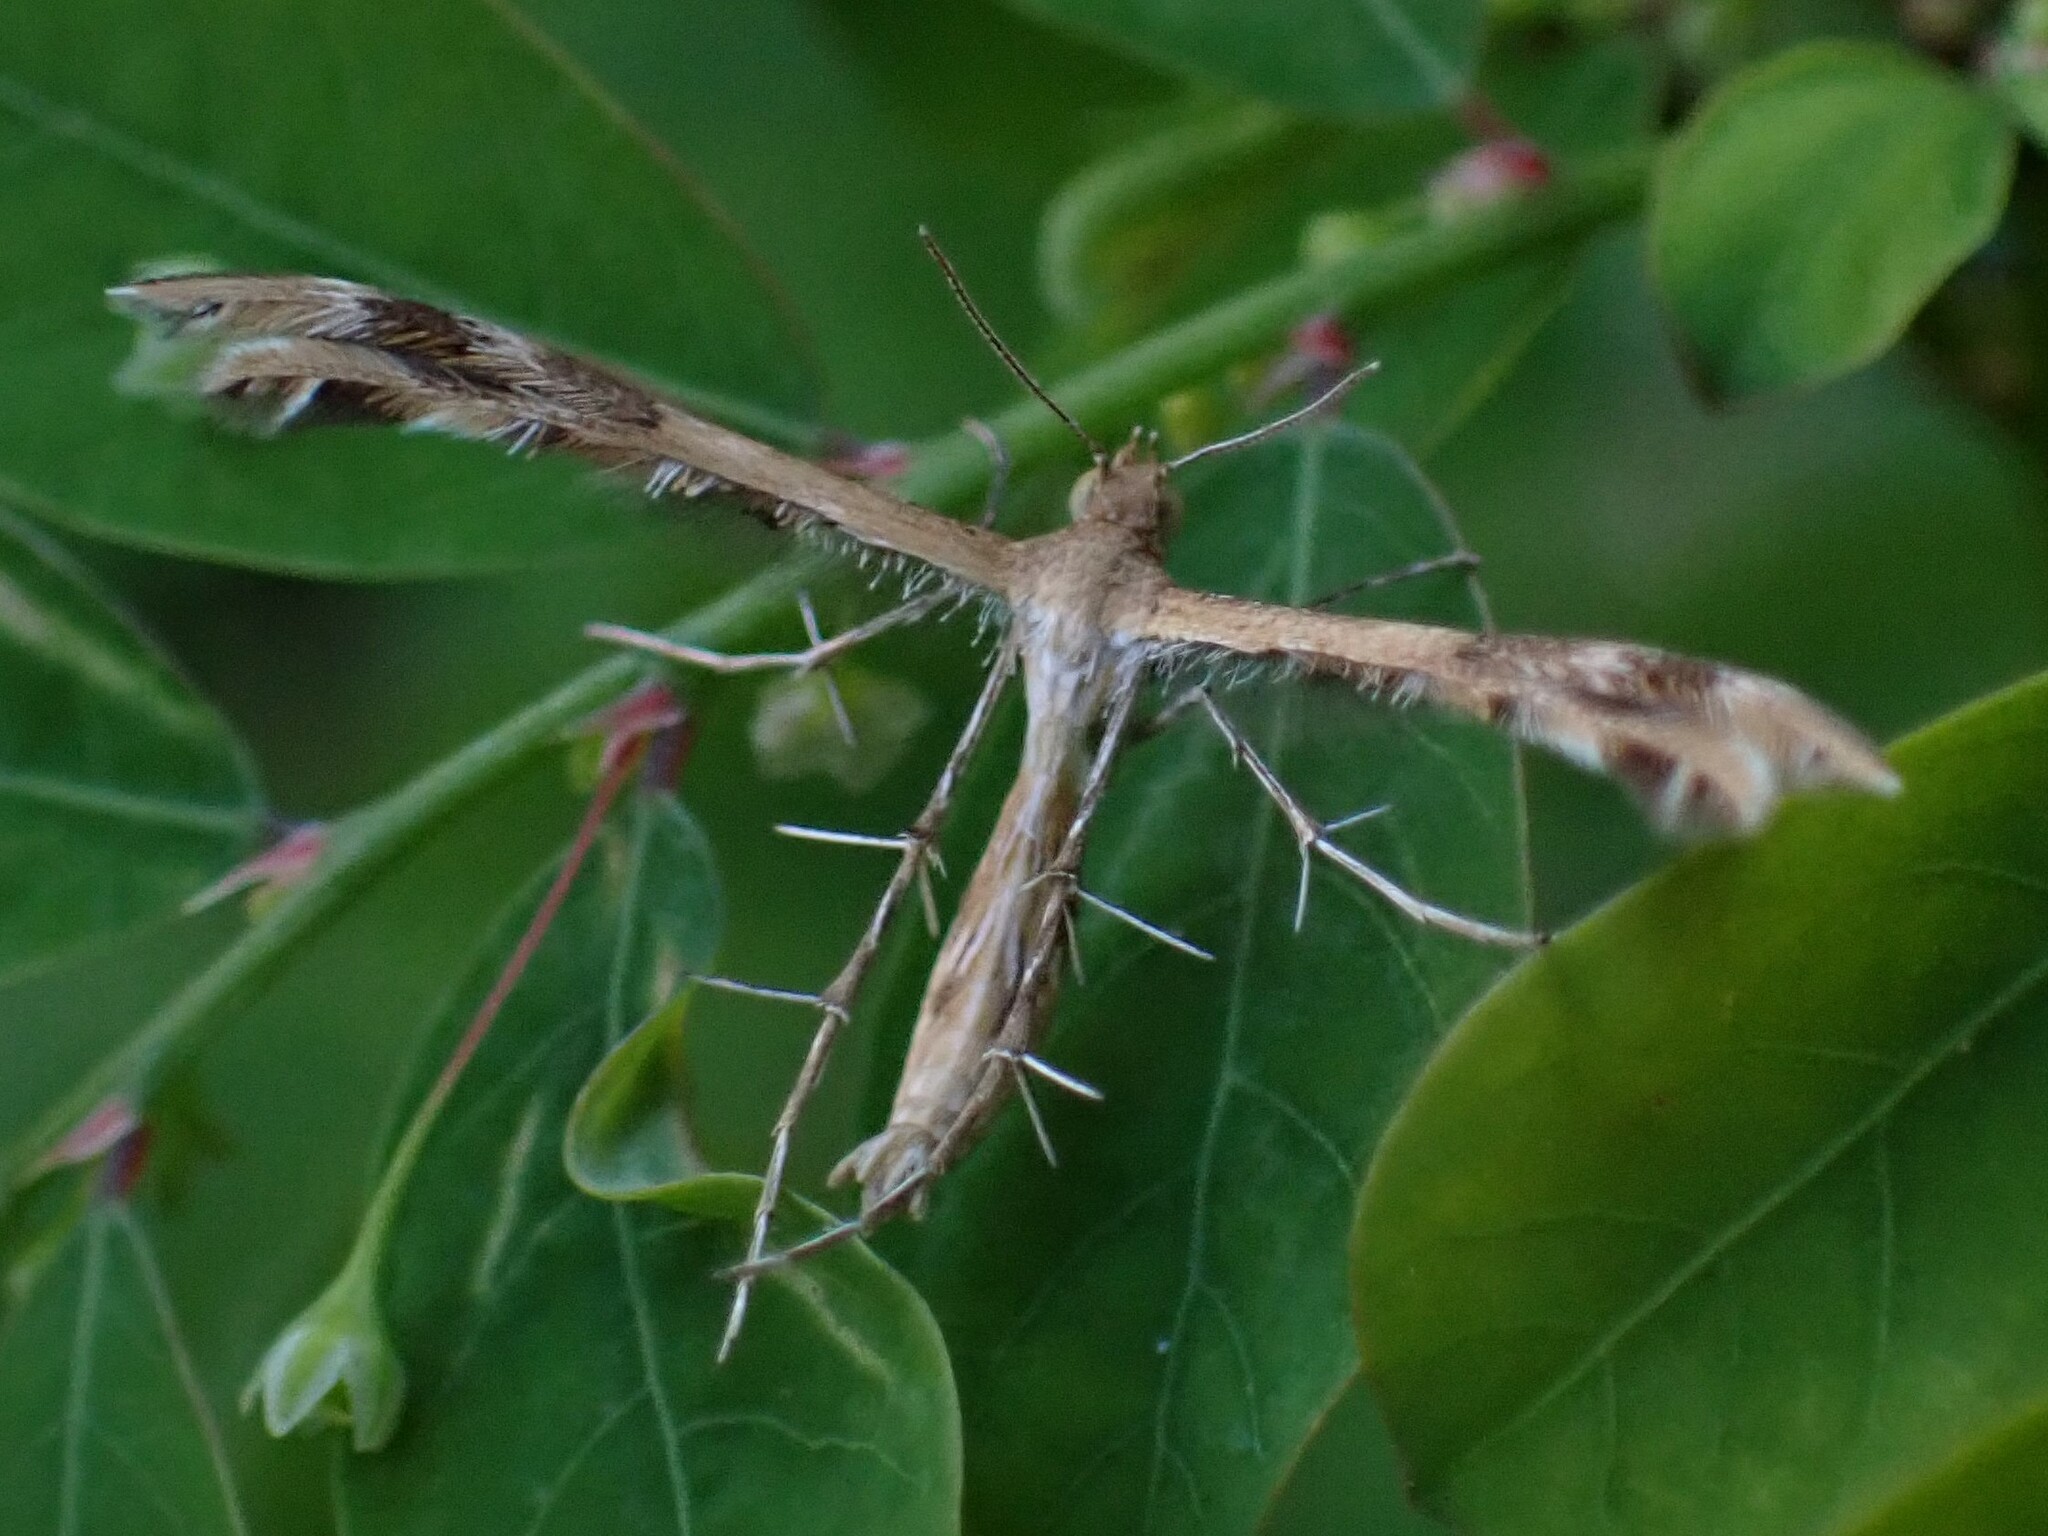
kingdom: Animalia
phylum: Arthropoda
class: Insecta
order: Lepidoptera
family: Pterophoridae
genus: Megalorhipida
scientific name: Megalorhipida leucodactylus
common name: Plume moth
